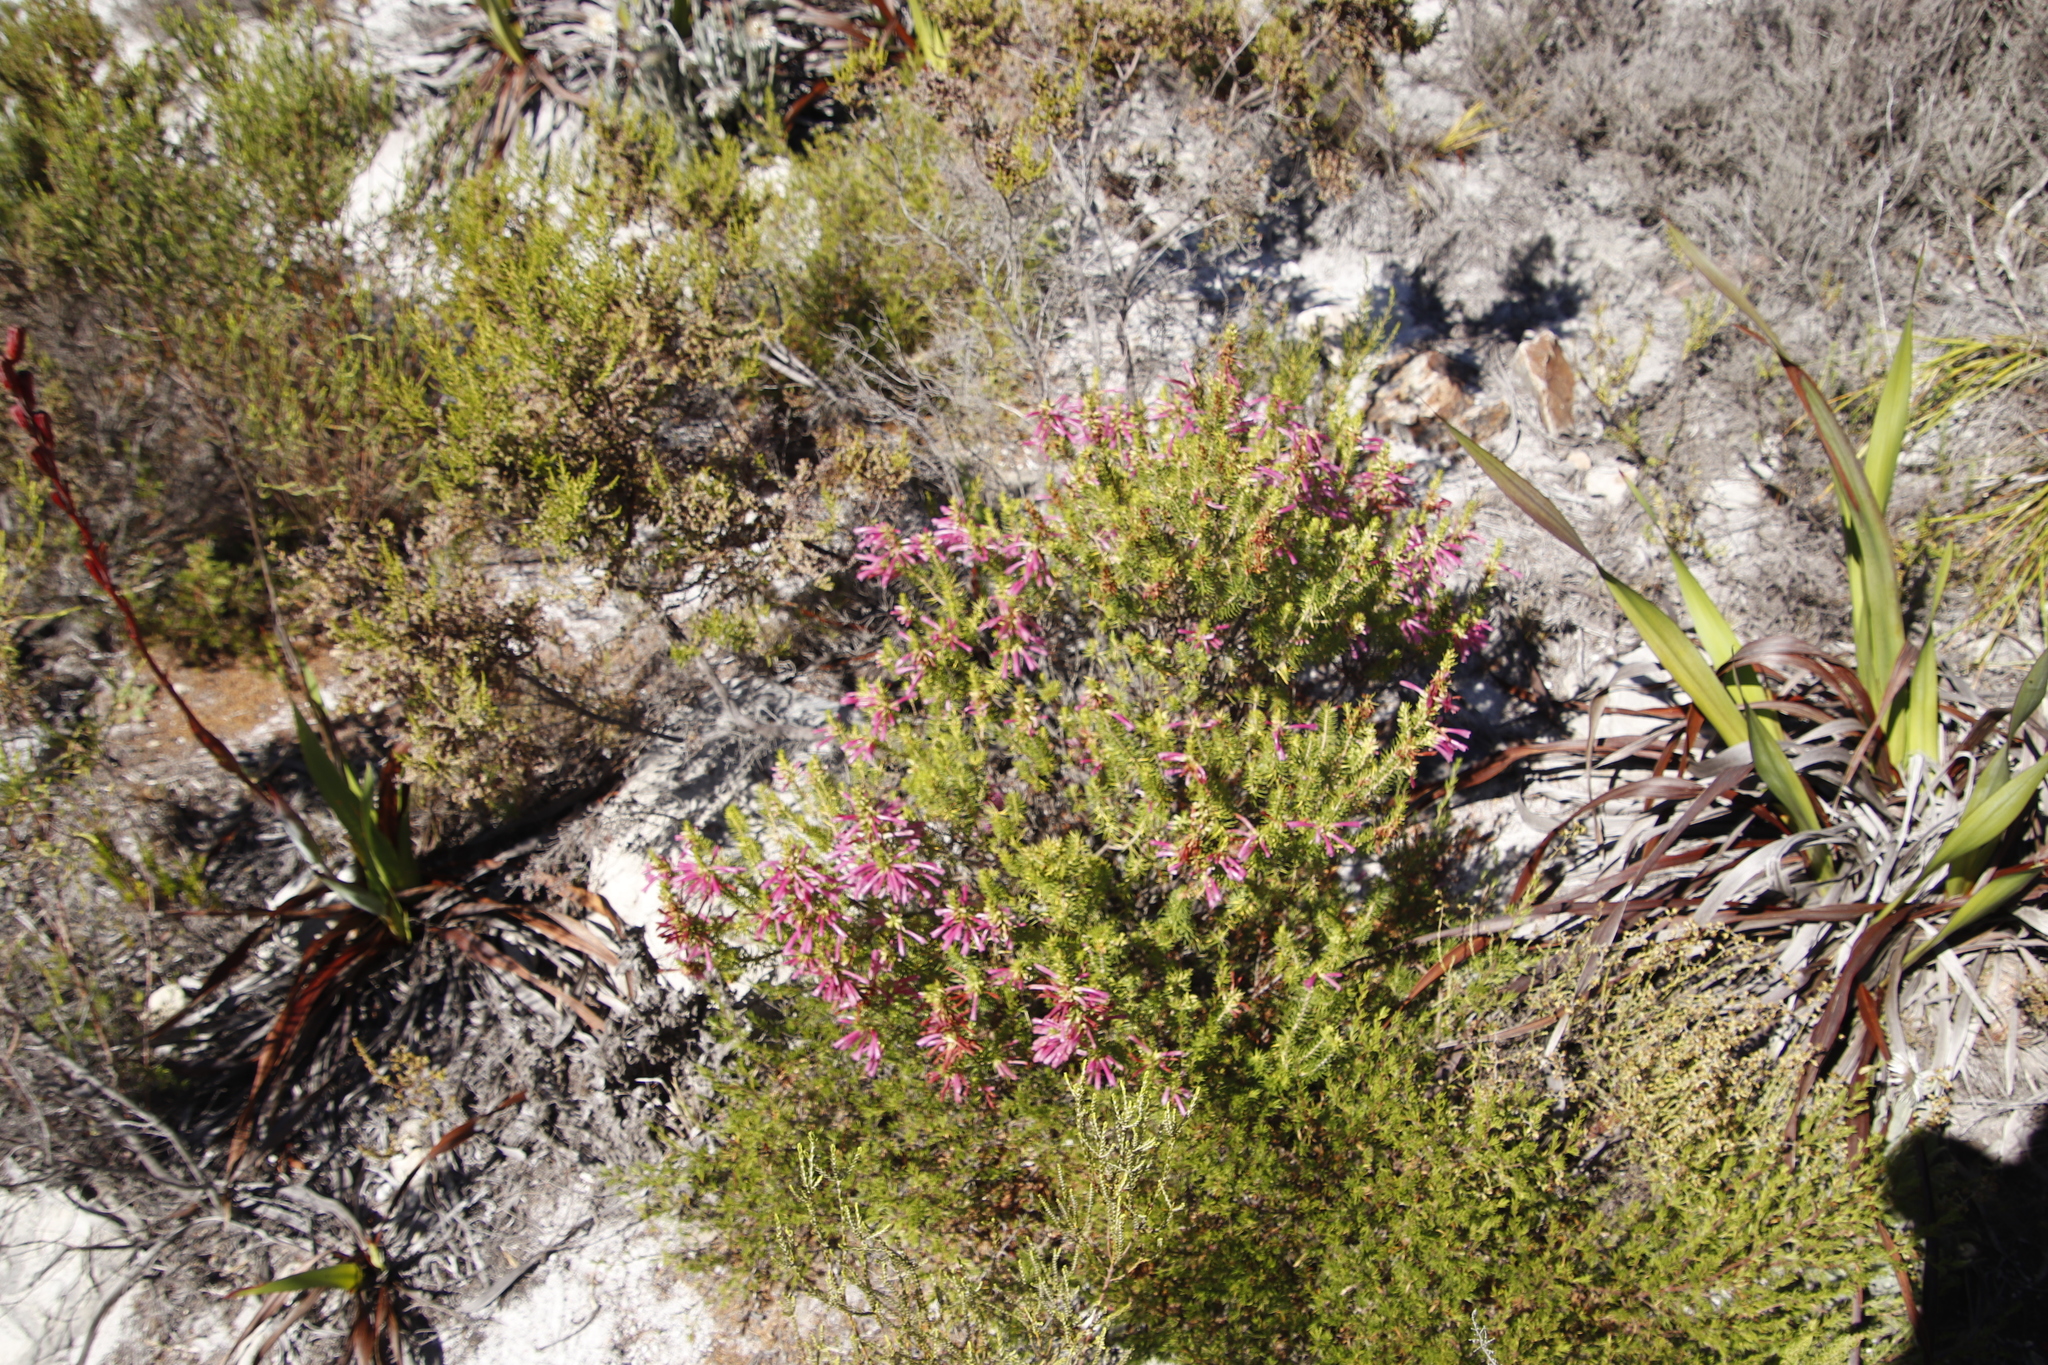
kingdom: Plantae
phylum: Tracheophyta
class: Magnoliopsida
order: Ericales
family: Ericaceae
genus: Erica
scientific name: Erica abietina
